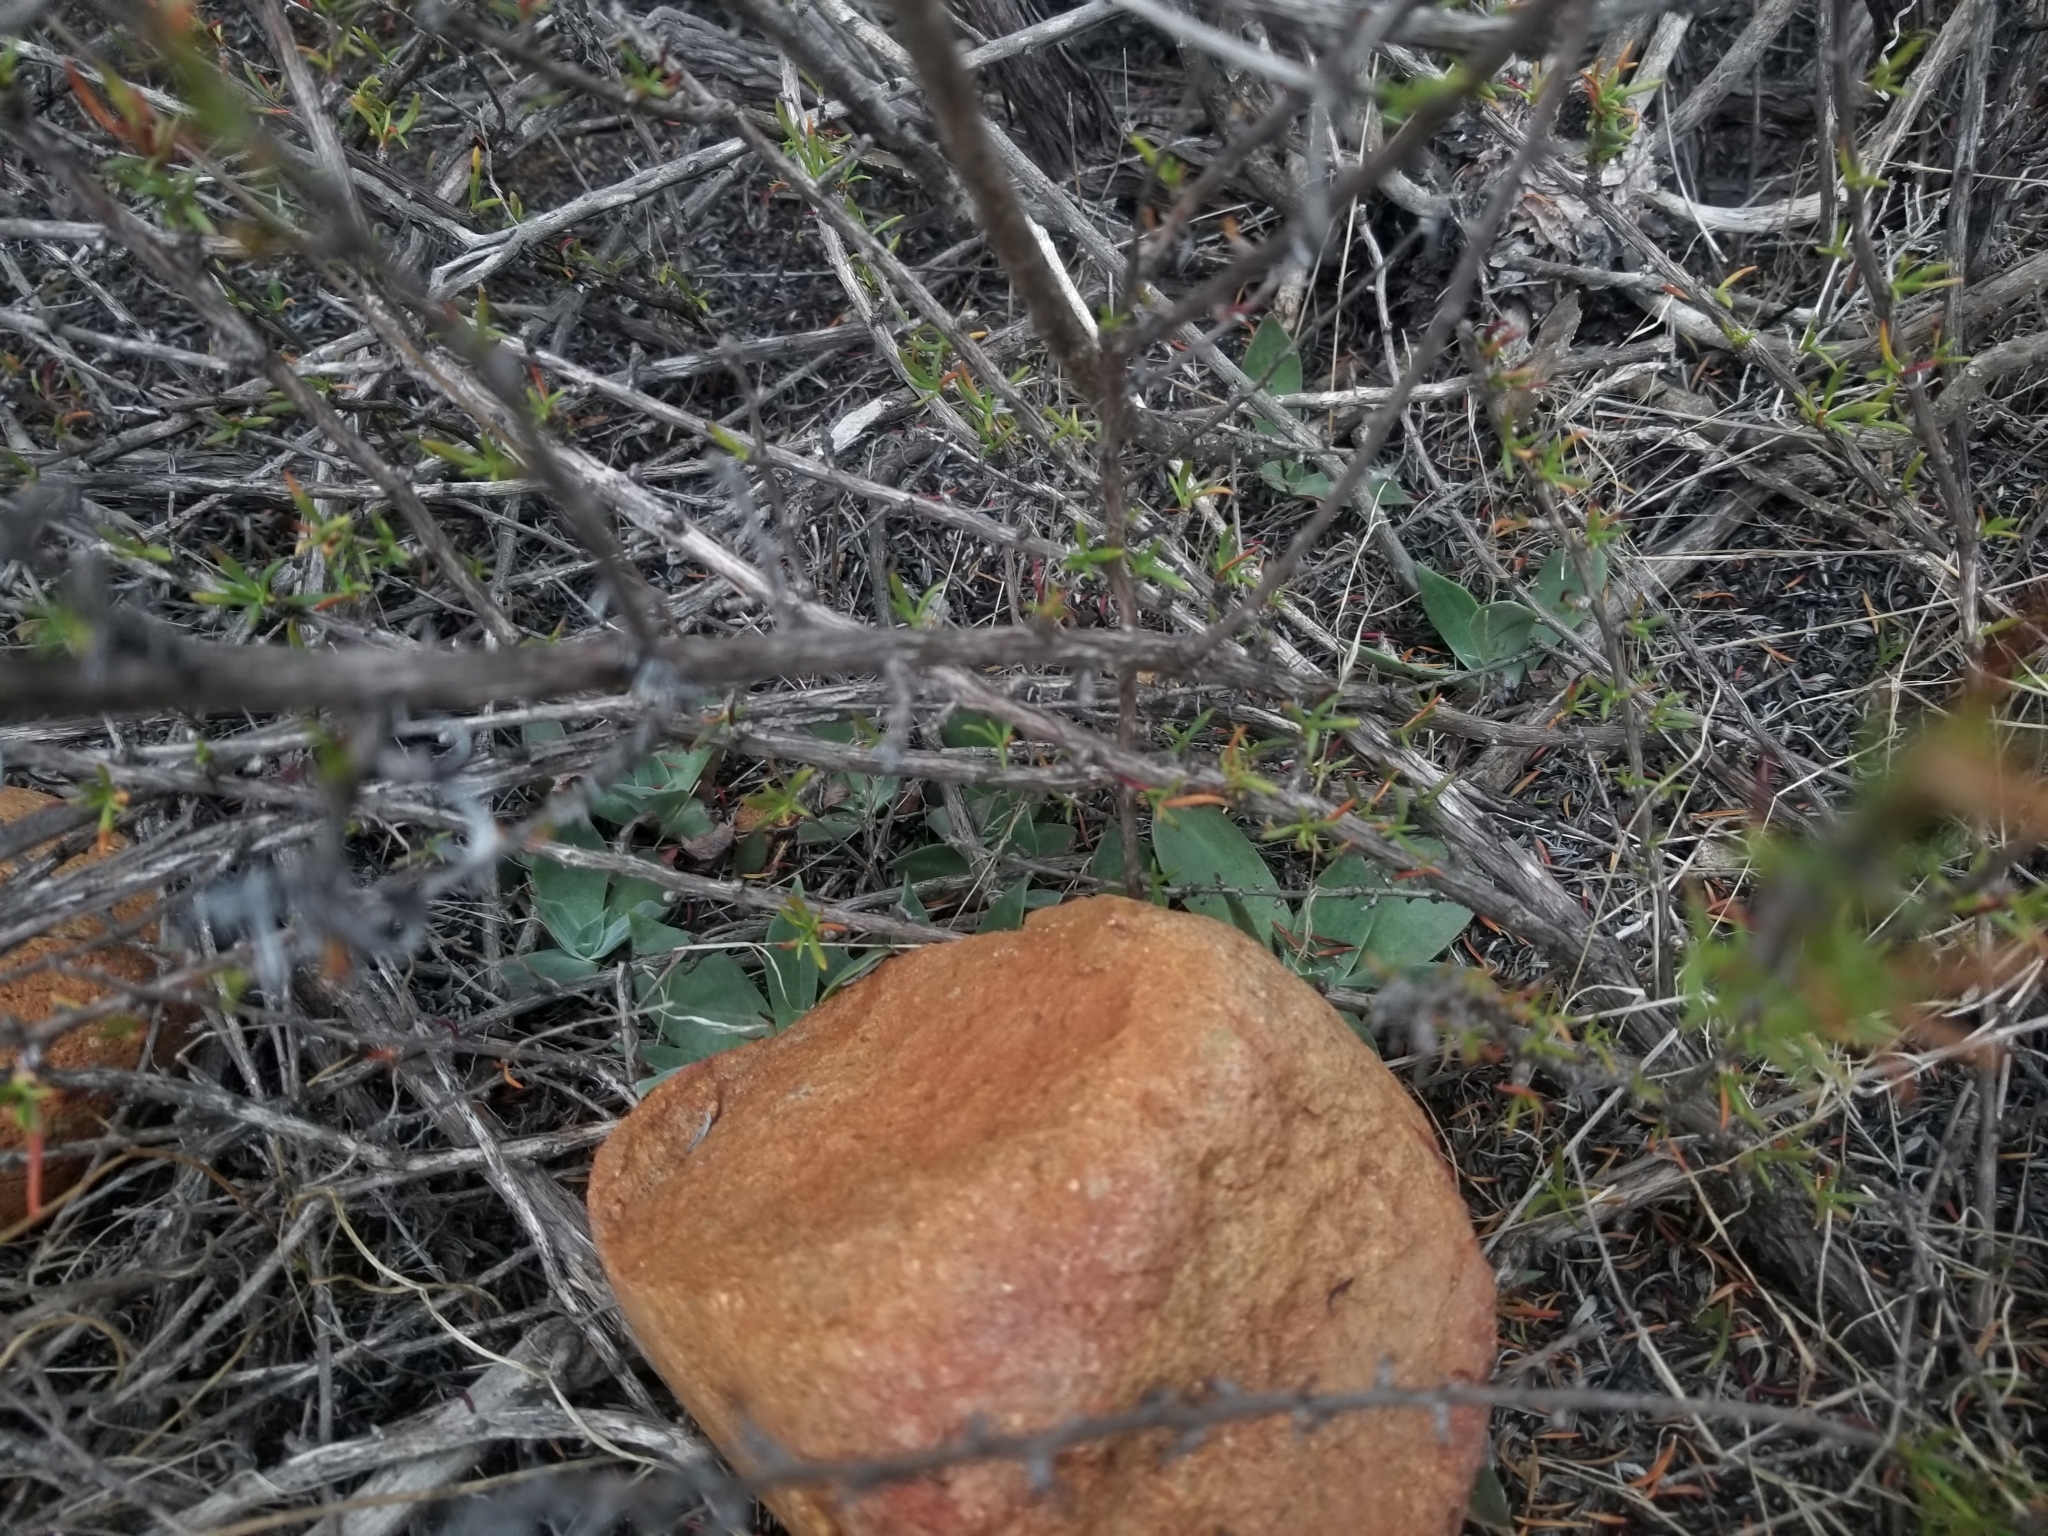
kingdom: Plantae
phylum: Tracheophyta
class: Magnoliopsida
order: Saxifragales
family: Crassulaceae
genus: Dudleya
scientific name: Dudleya pulverulenta
